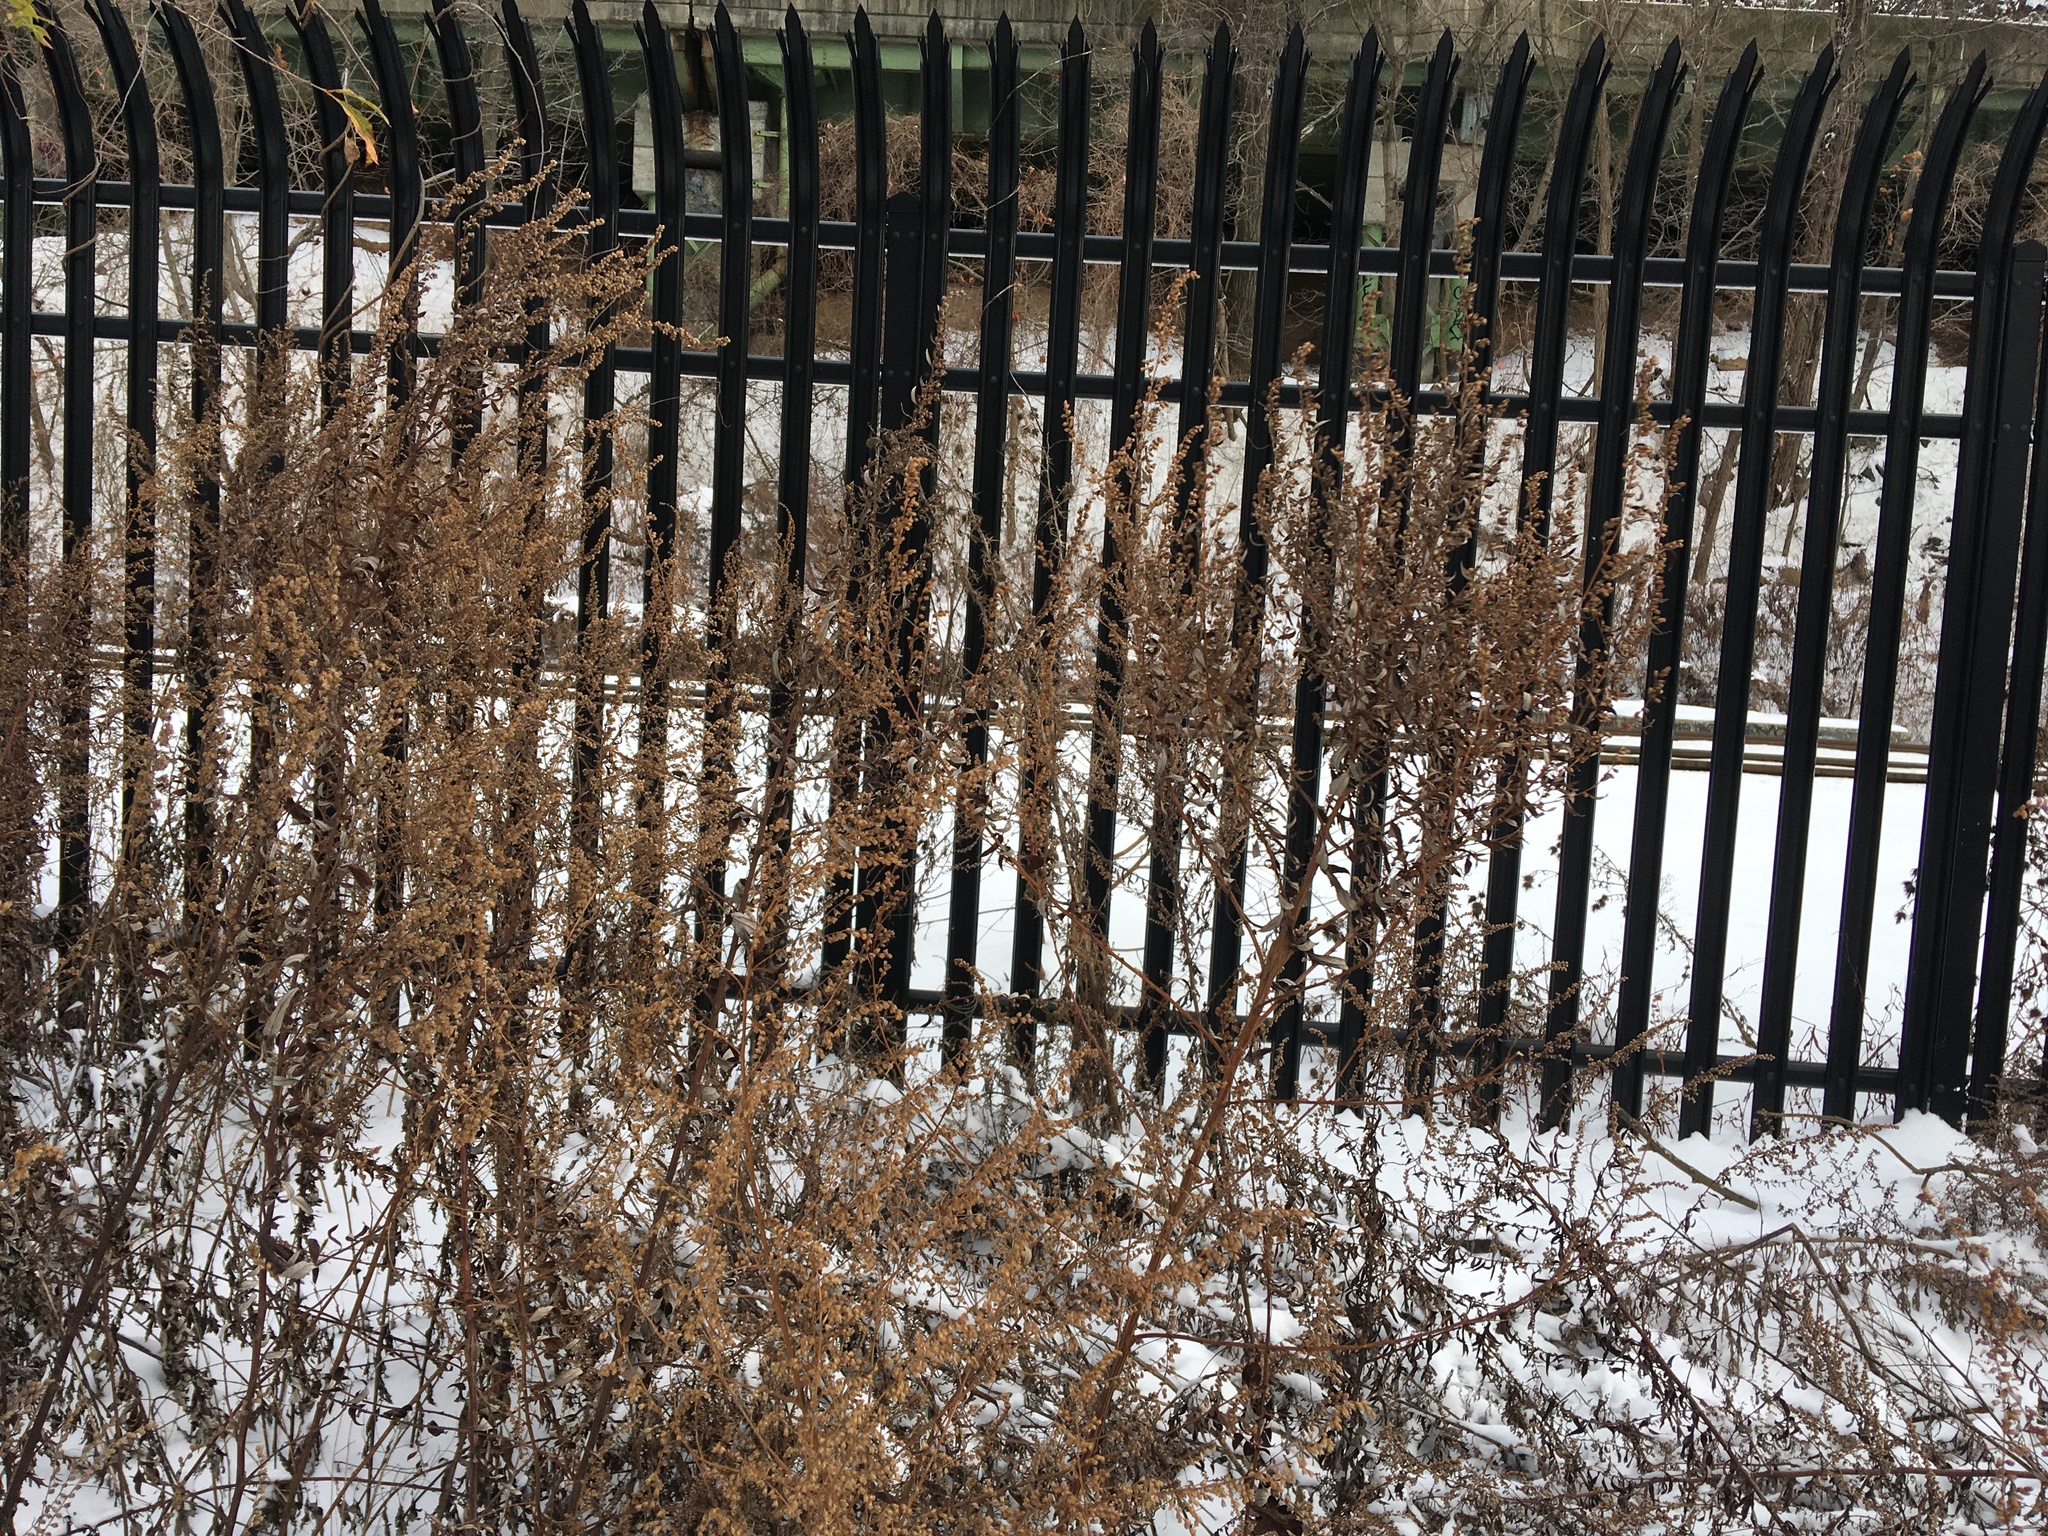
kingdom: Plantae
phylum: Tracheophyta
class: Magnoliopsida
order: Asterales
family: Asteraceae
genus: Artemisia
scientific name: Artemisia vulgaris
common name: Mugwort
